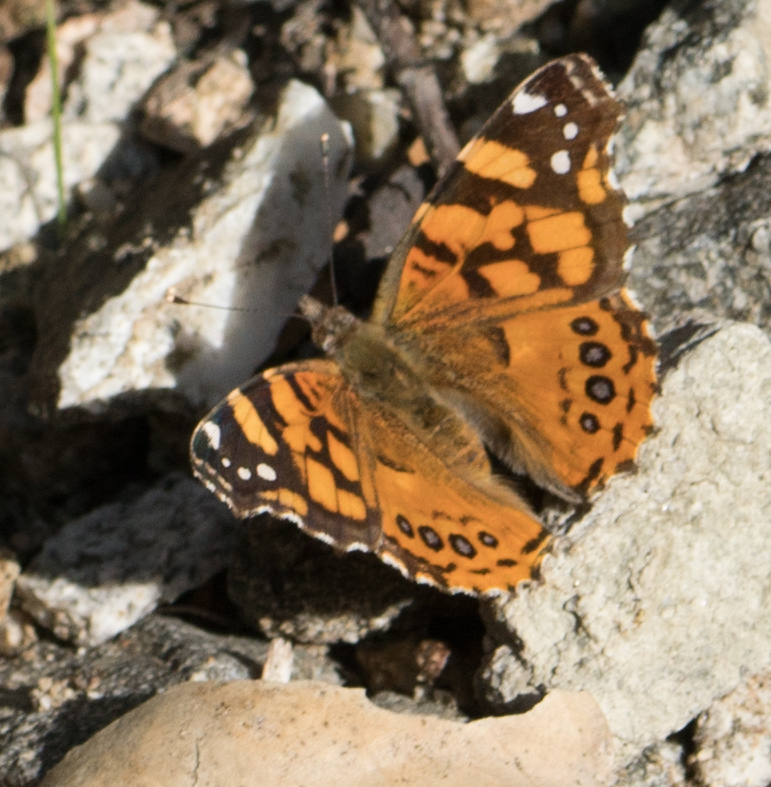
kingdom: Animalia
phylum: Arthropoda
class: Insecta
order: Lepidoptera
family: Nymphalidae
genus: Vanessa
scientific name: Vanessa annabella
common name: West coast lady
